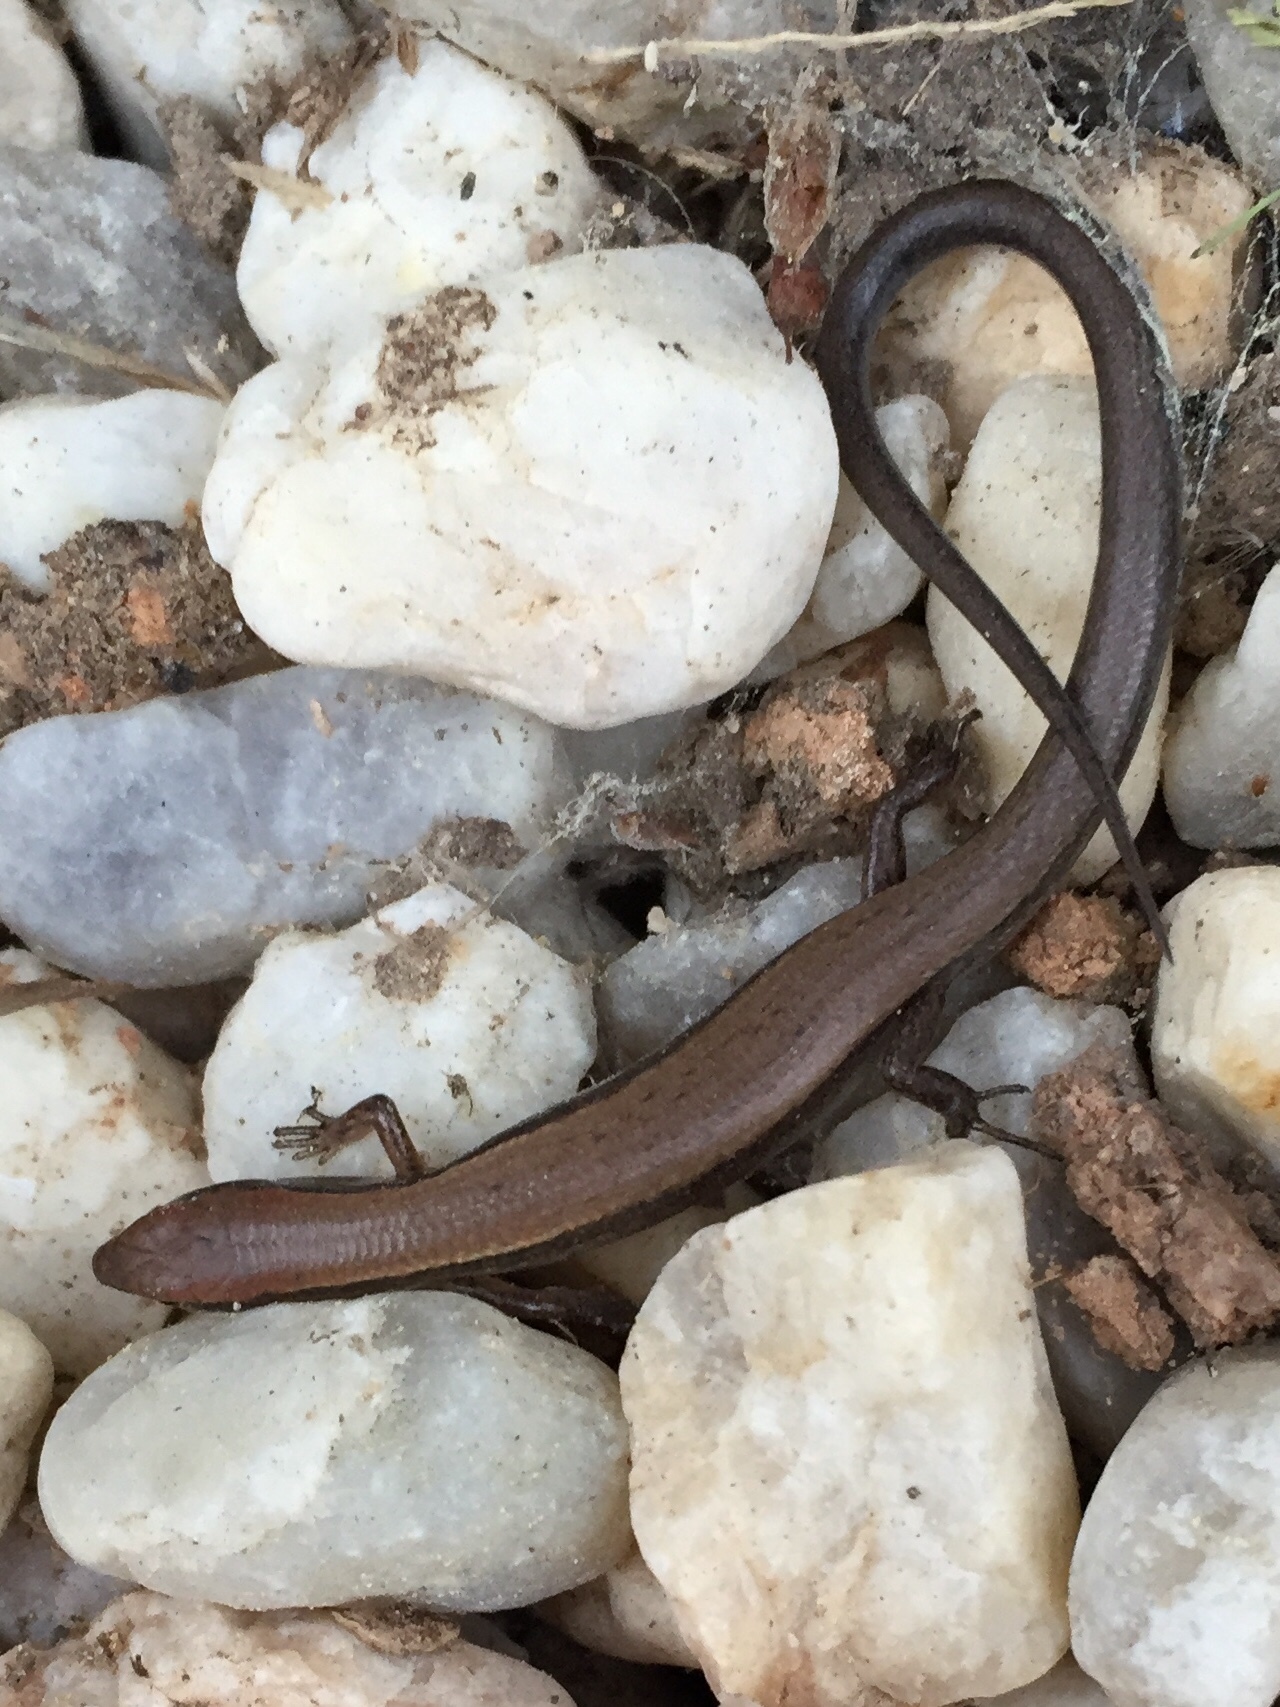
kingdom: Animalia
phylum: Chordata
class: Squamata
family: Scincidae
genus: Scincella
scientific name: Scincella lateralis
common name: Ground skink
